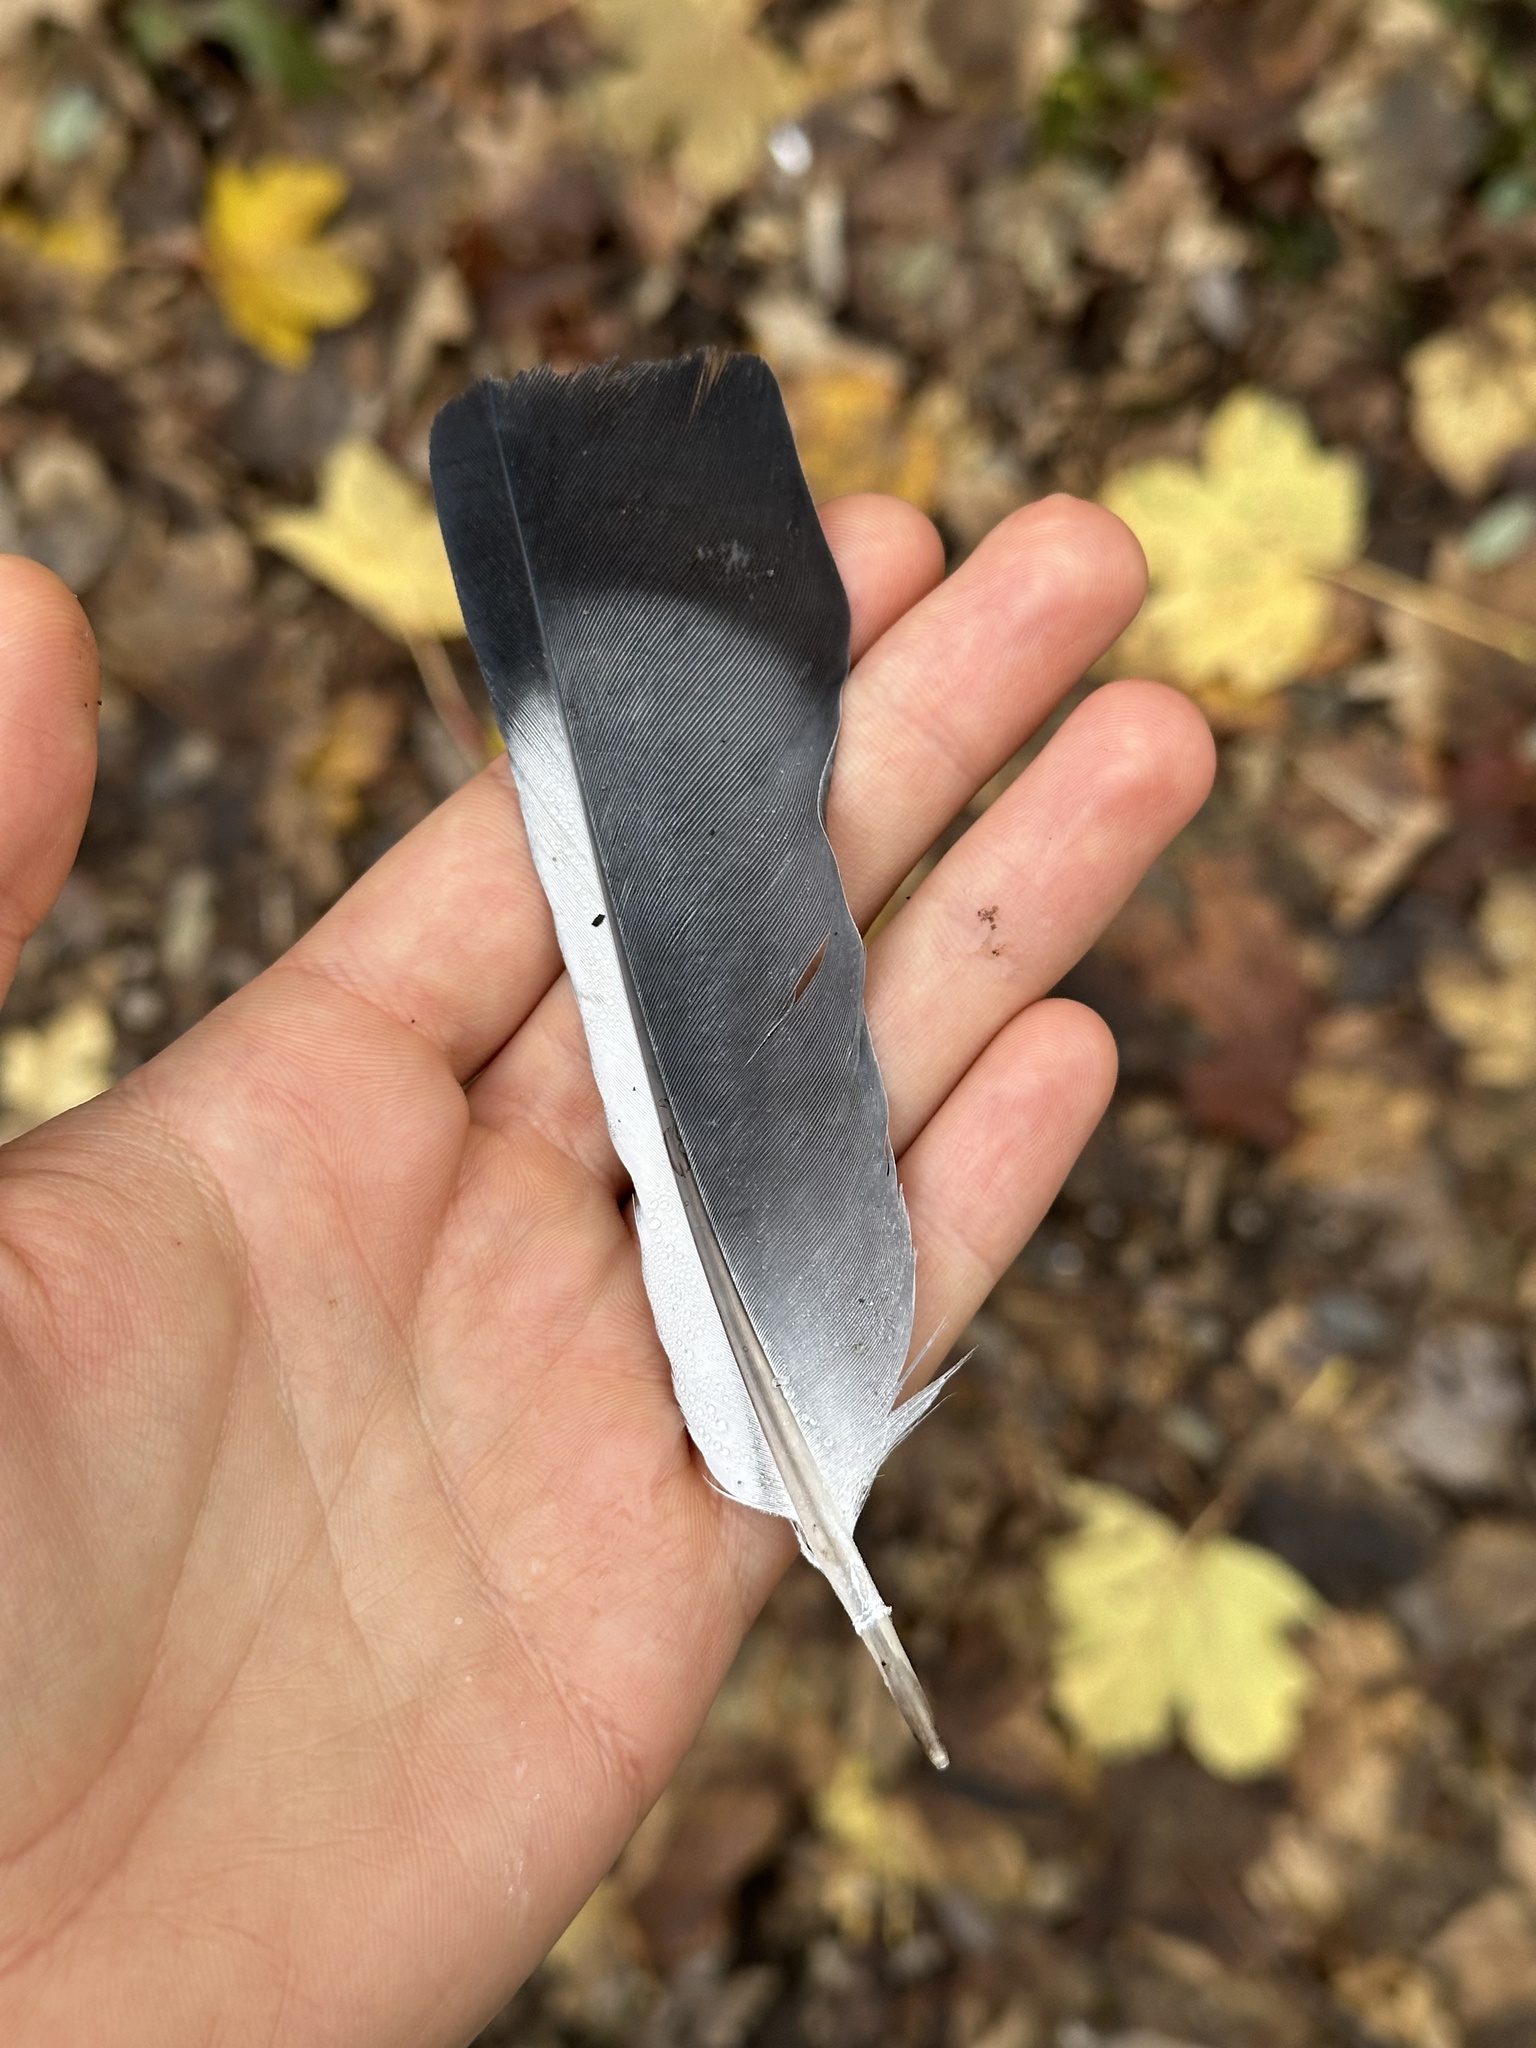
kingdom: Animalia
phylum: Chordata
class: Aves
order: Columbiformes
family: Columbidae
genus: Columba
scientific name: Columba livia
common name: Rock pigeon
